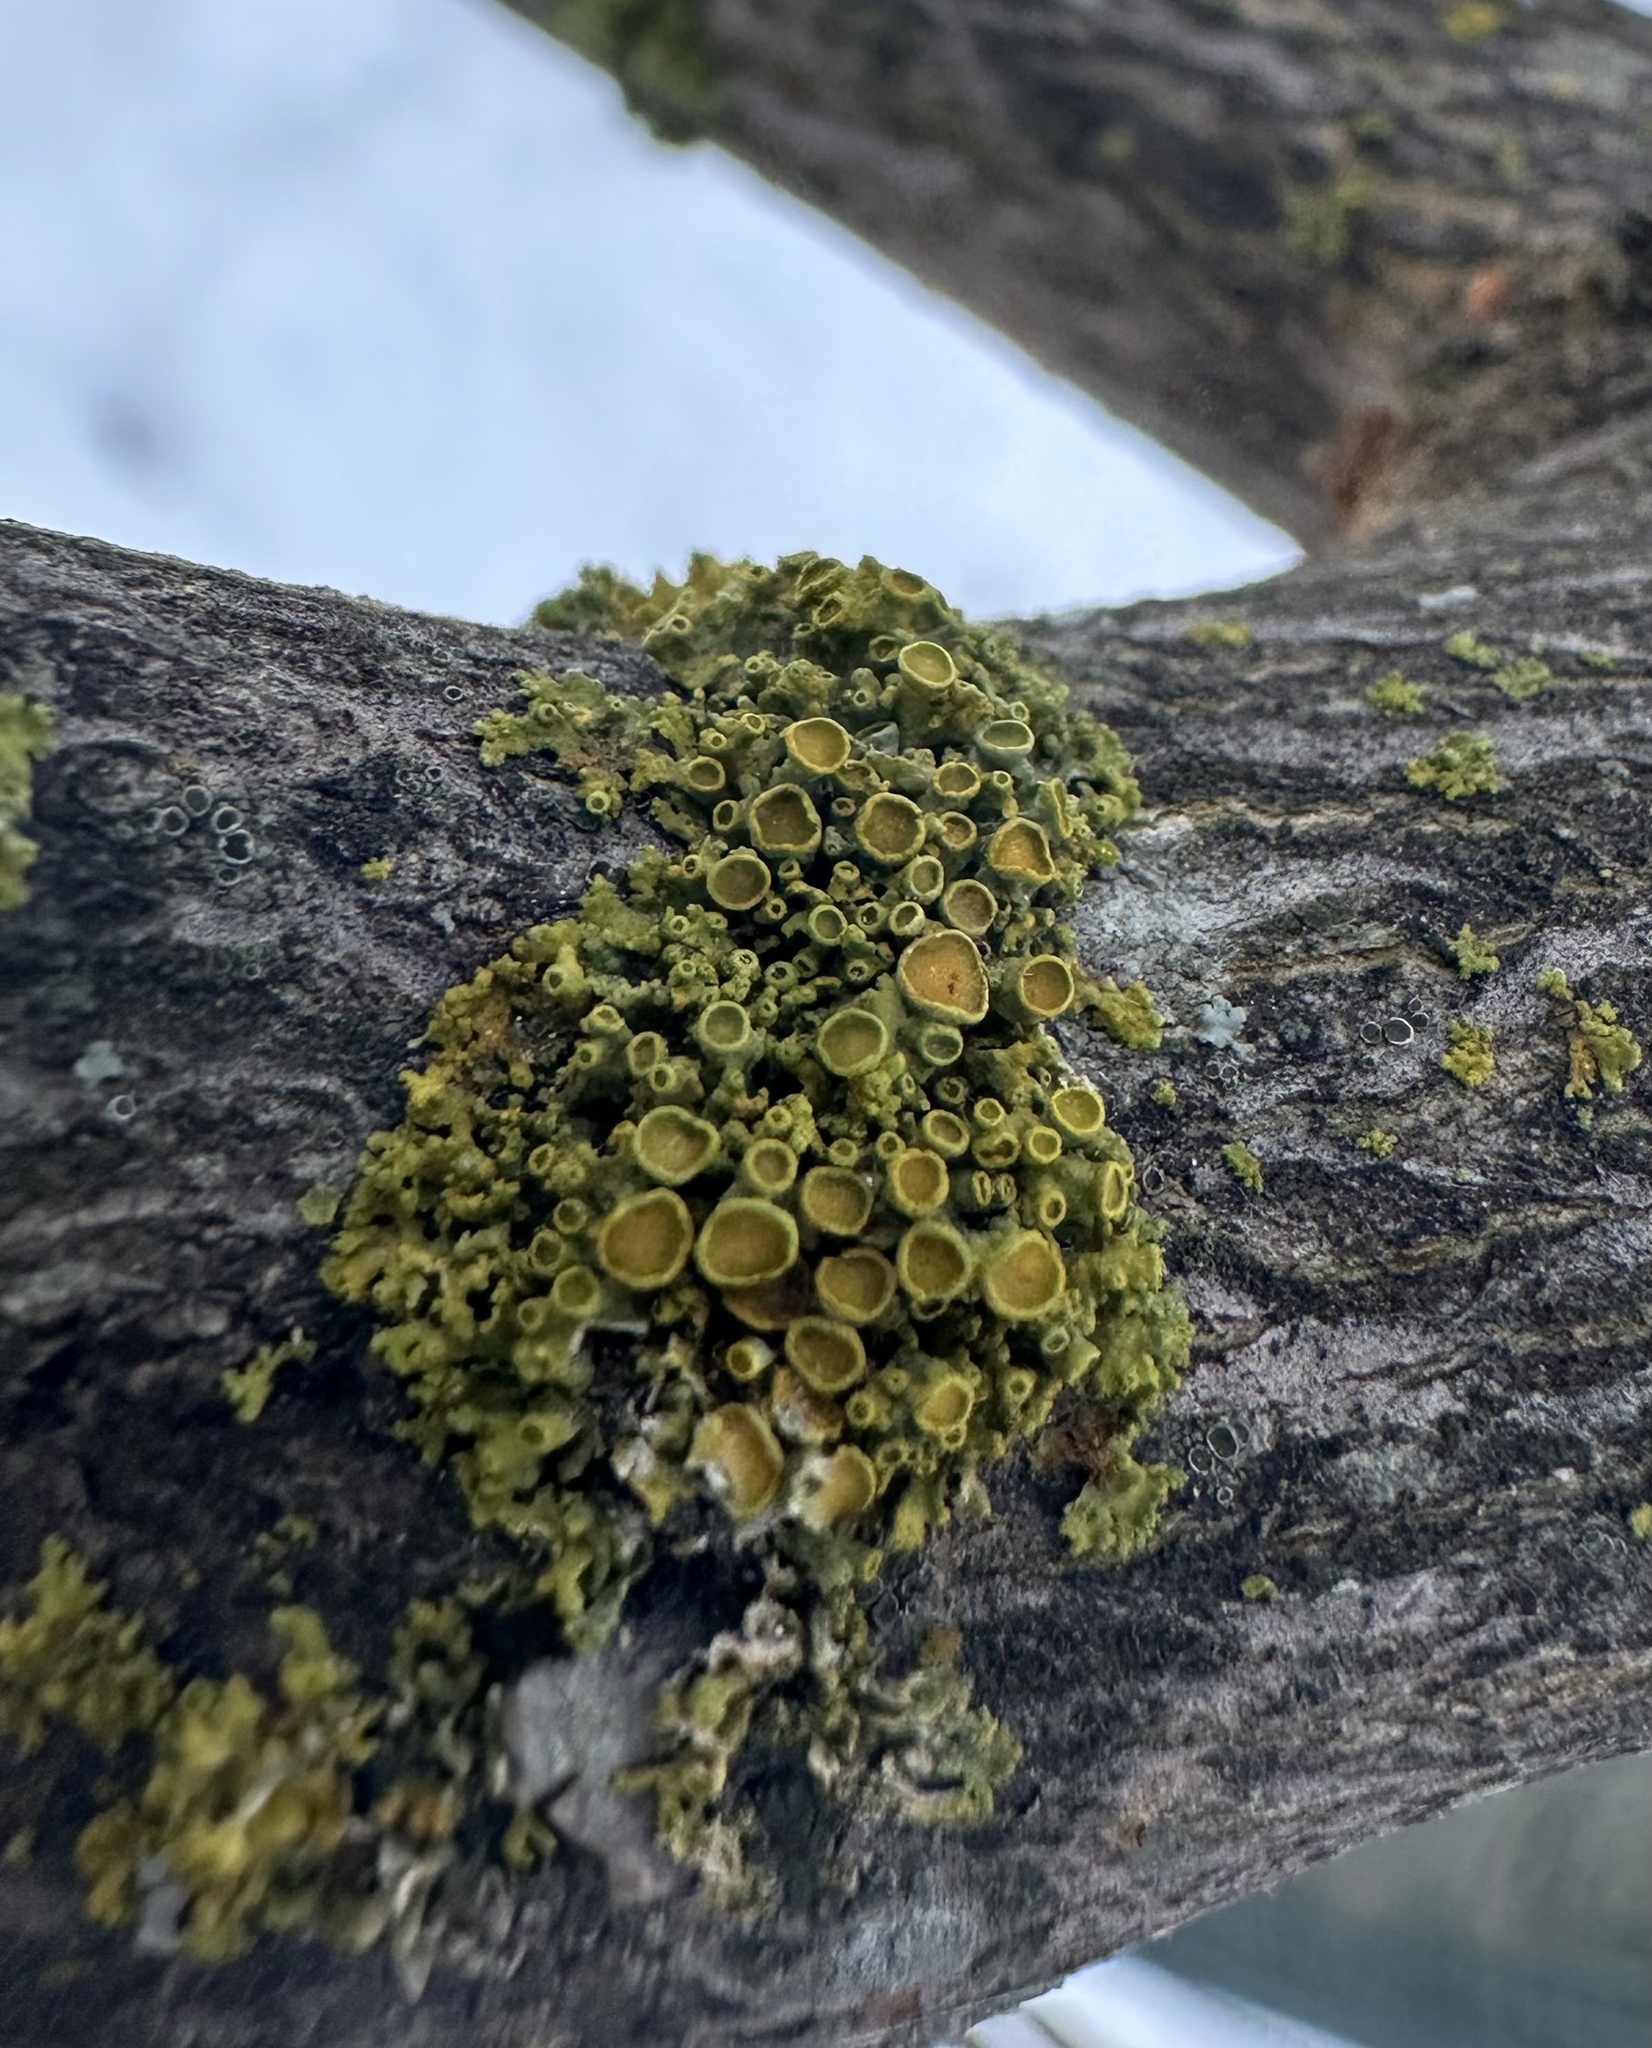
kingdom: Fungi
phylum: Ascomycota
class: Lecanoromycetes
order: Teloschistales
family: Teloschistaceae
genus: Polycauliona
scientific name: Polycauliona polycarpa
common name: Pin-cushion sunburst lichen
